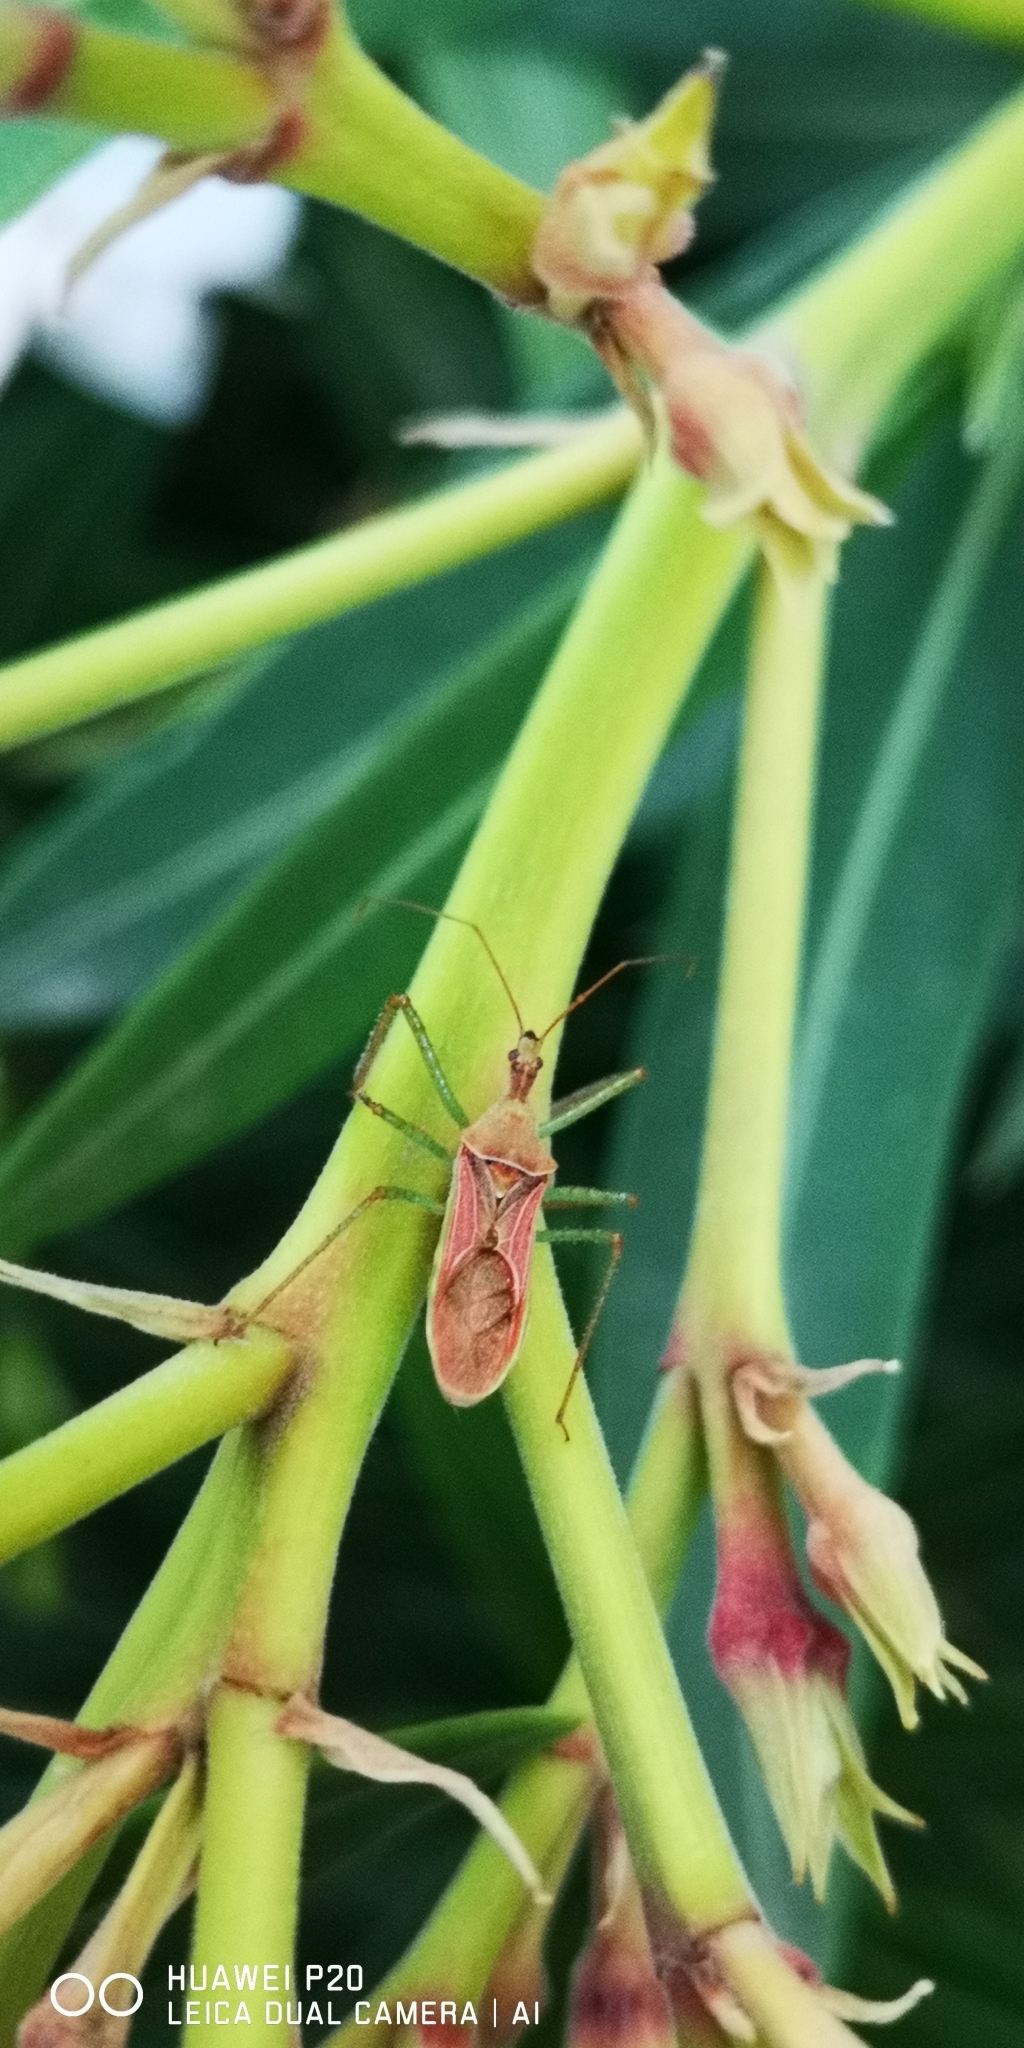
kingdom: Animalia
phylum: Arthropoda
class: Insecta
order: Hemiptera
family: Reduviidae
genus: Zelus
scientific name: Zelus renardii
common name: Assassin bug
